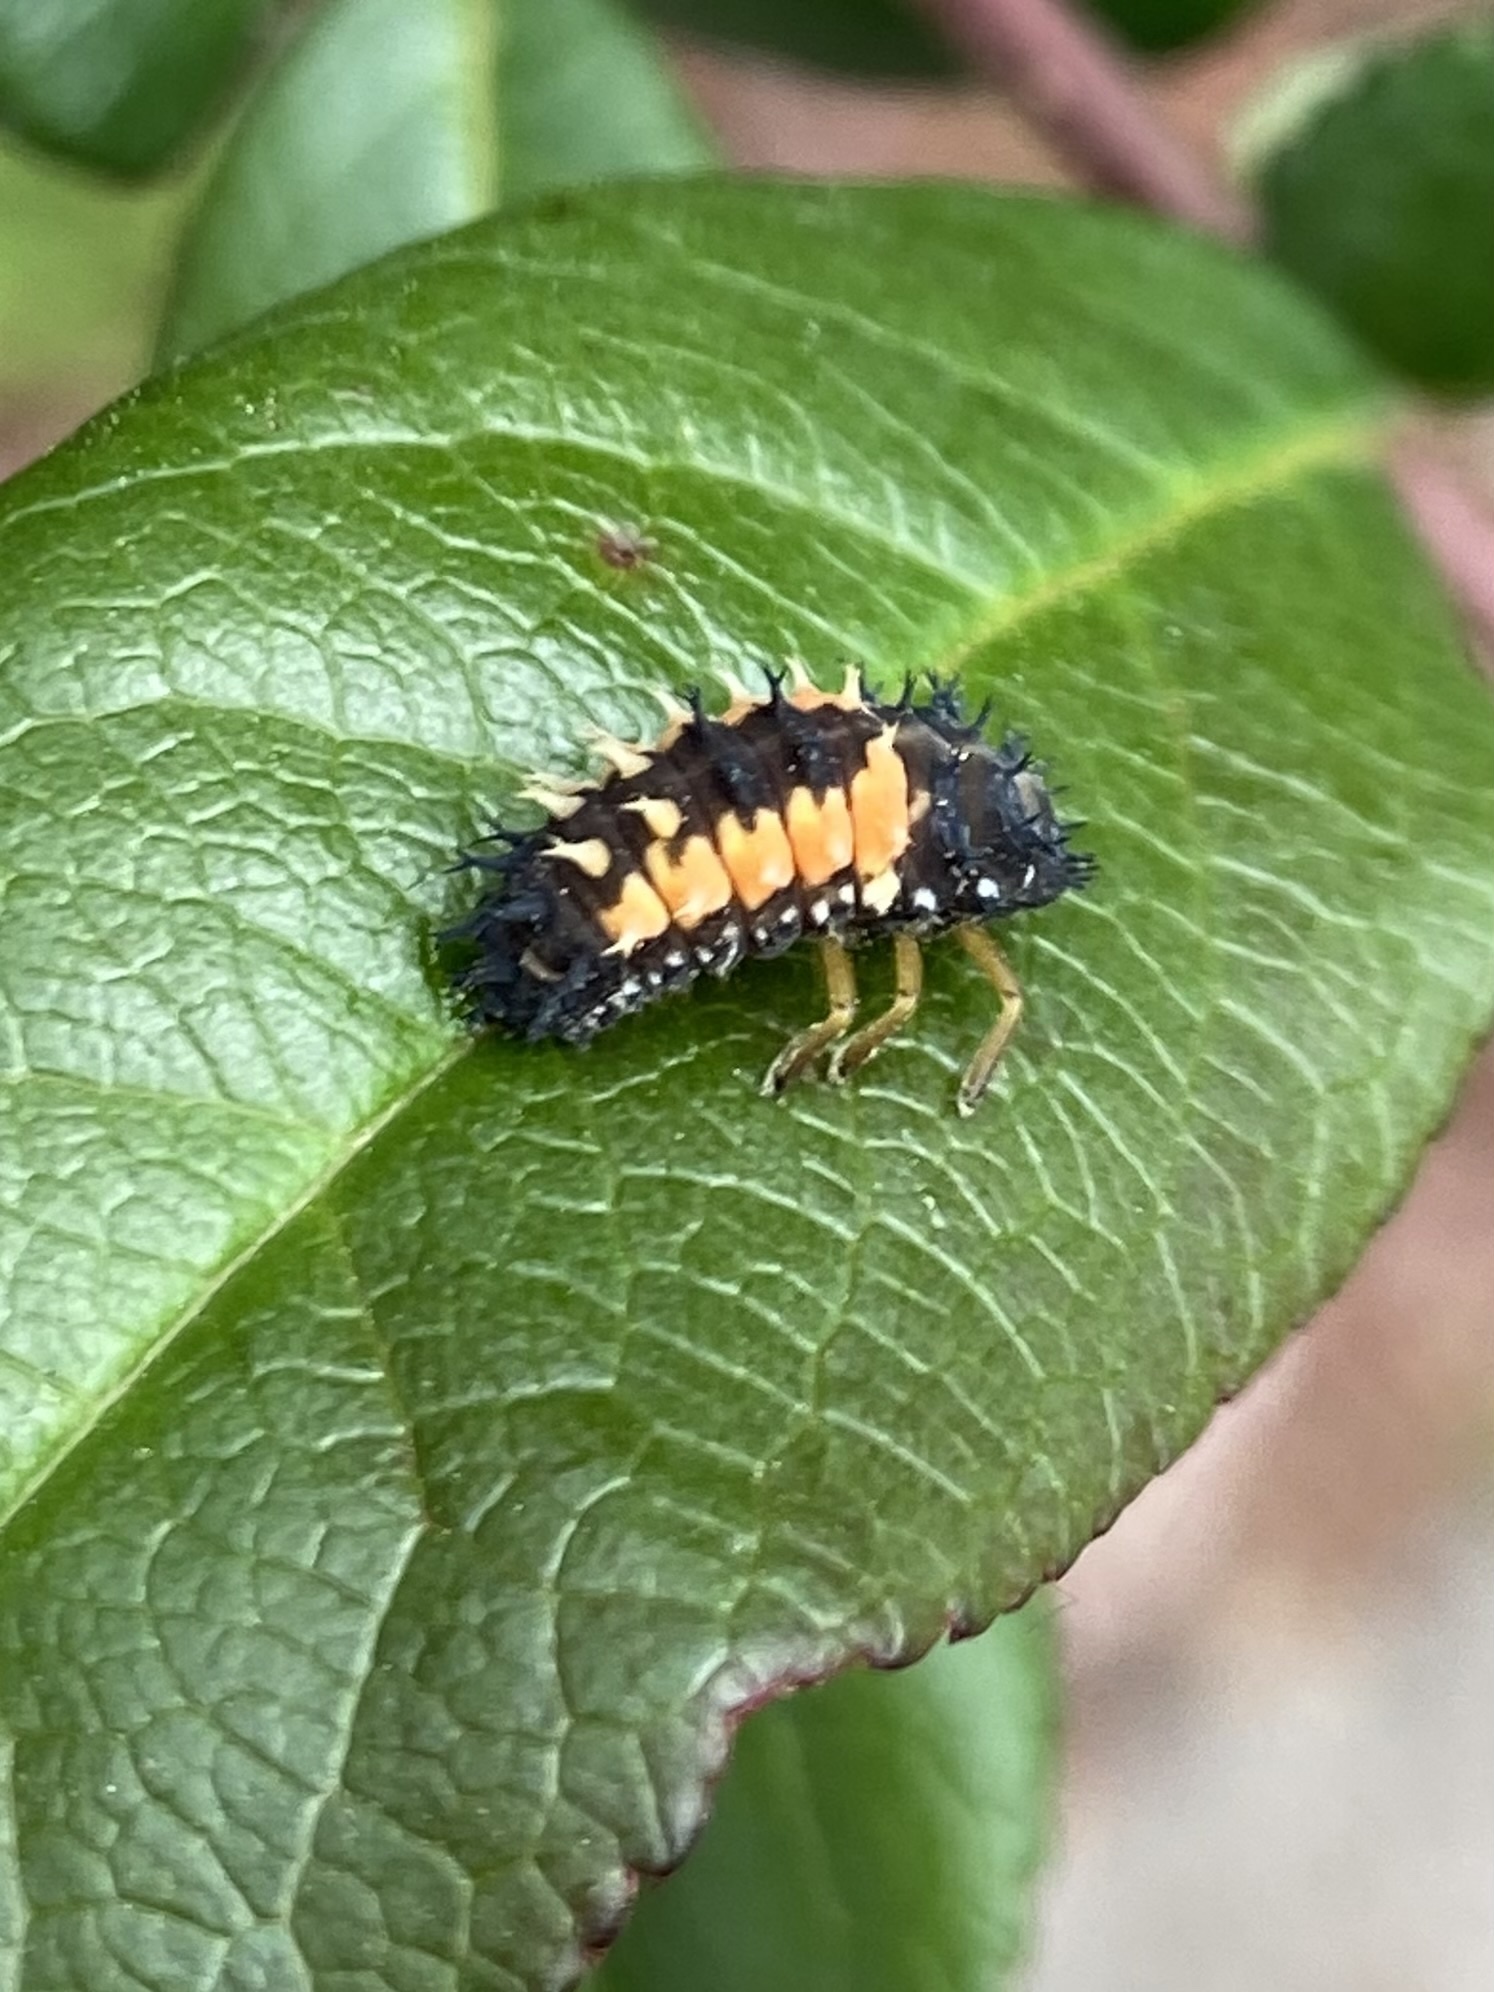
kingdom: Animalia
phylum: Arthropoda
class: Insecta
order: Coleoptera
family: Coccinellidae
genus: Harmonia
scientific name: Harmonia axyridis
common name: Harlequin ladybird
